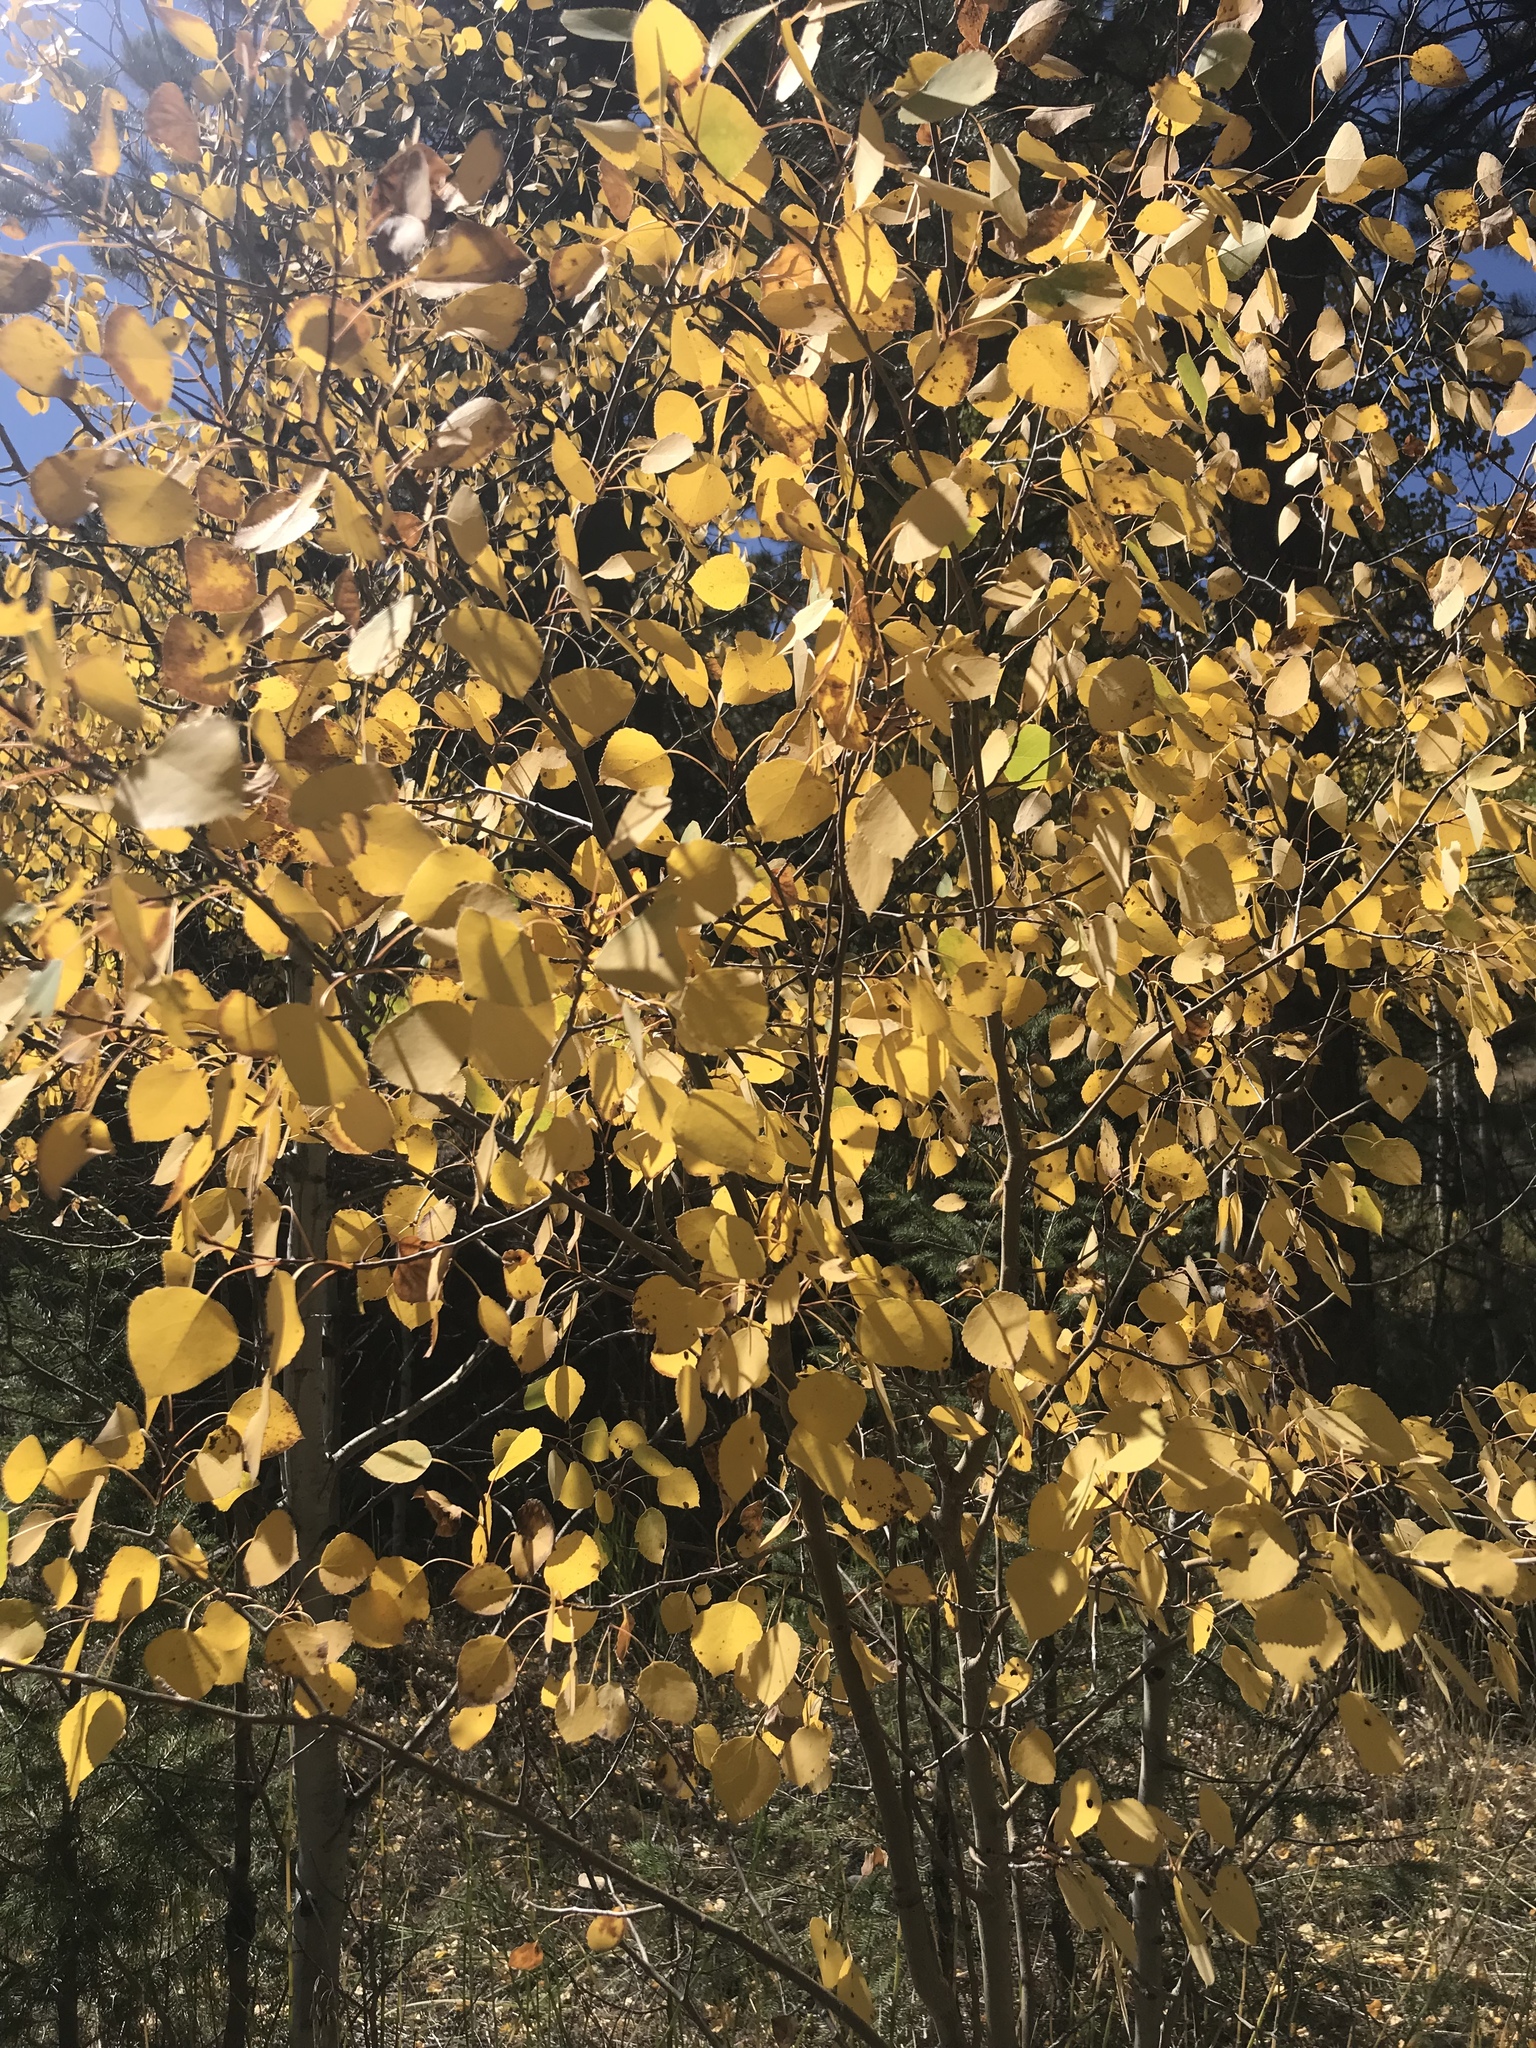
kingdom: Plantae
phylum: Tracheophyta
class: Magnoliopsida
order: Malpighiales
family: Salicaceae
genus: Populus
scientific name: Populus tremuloides
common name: Quaking aspen
